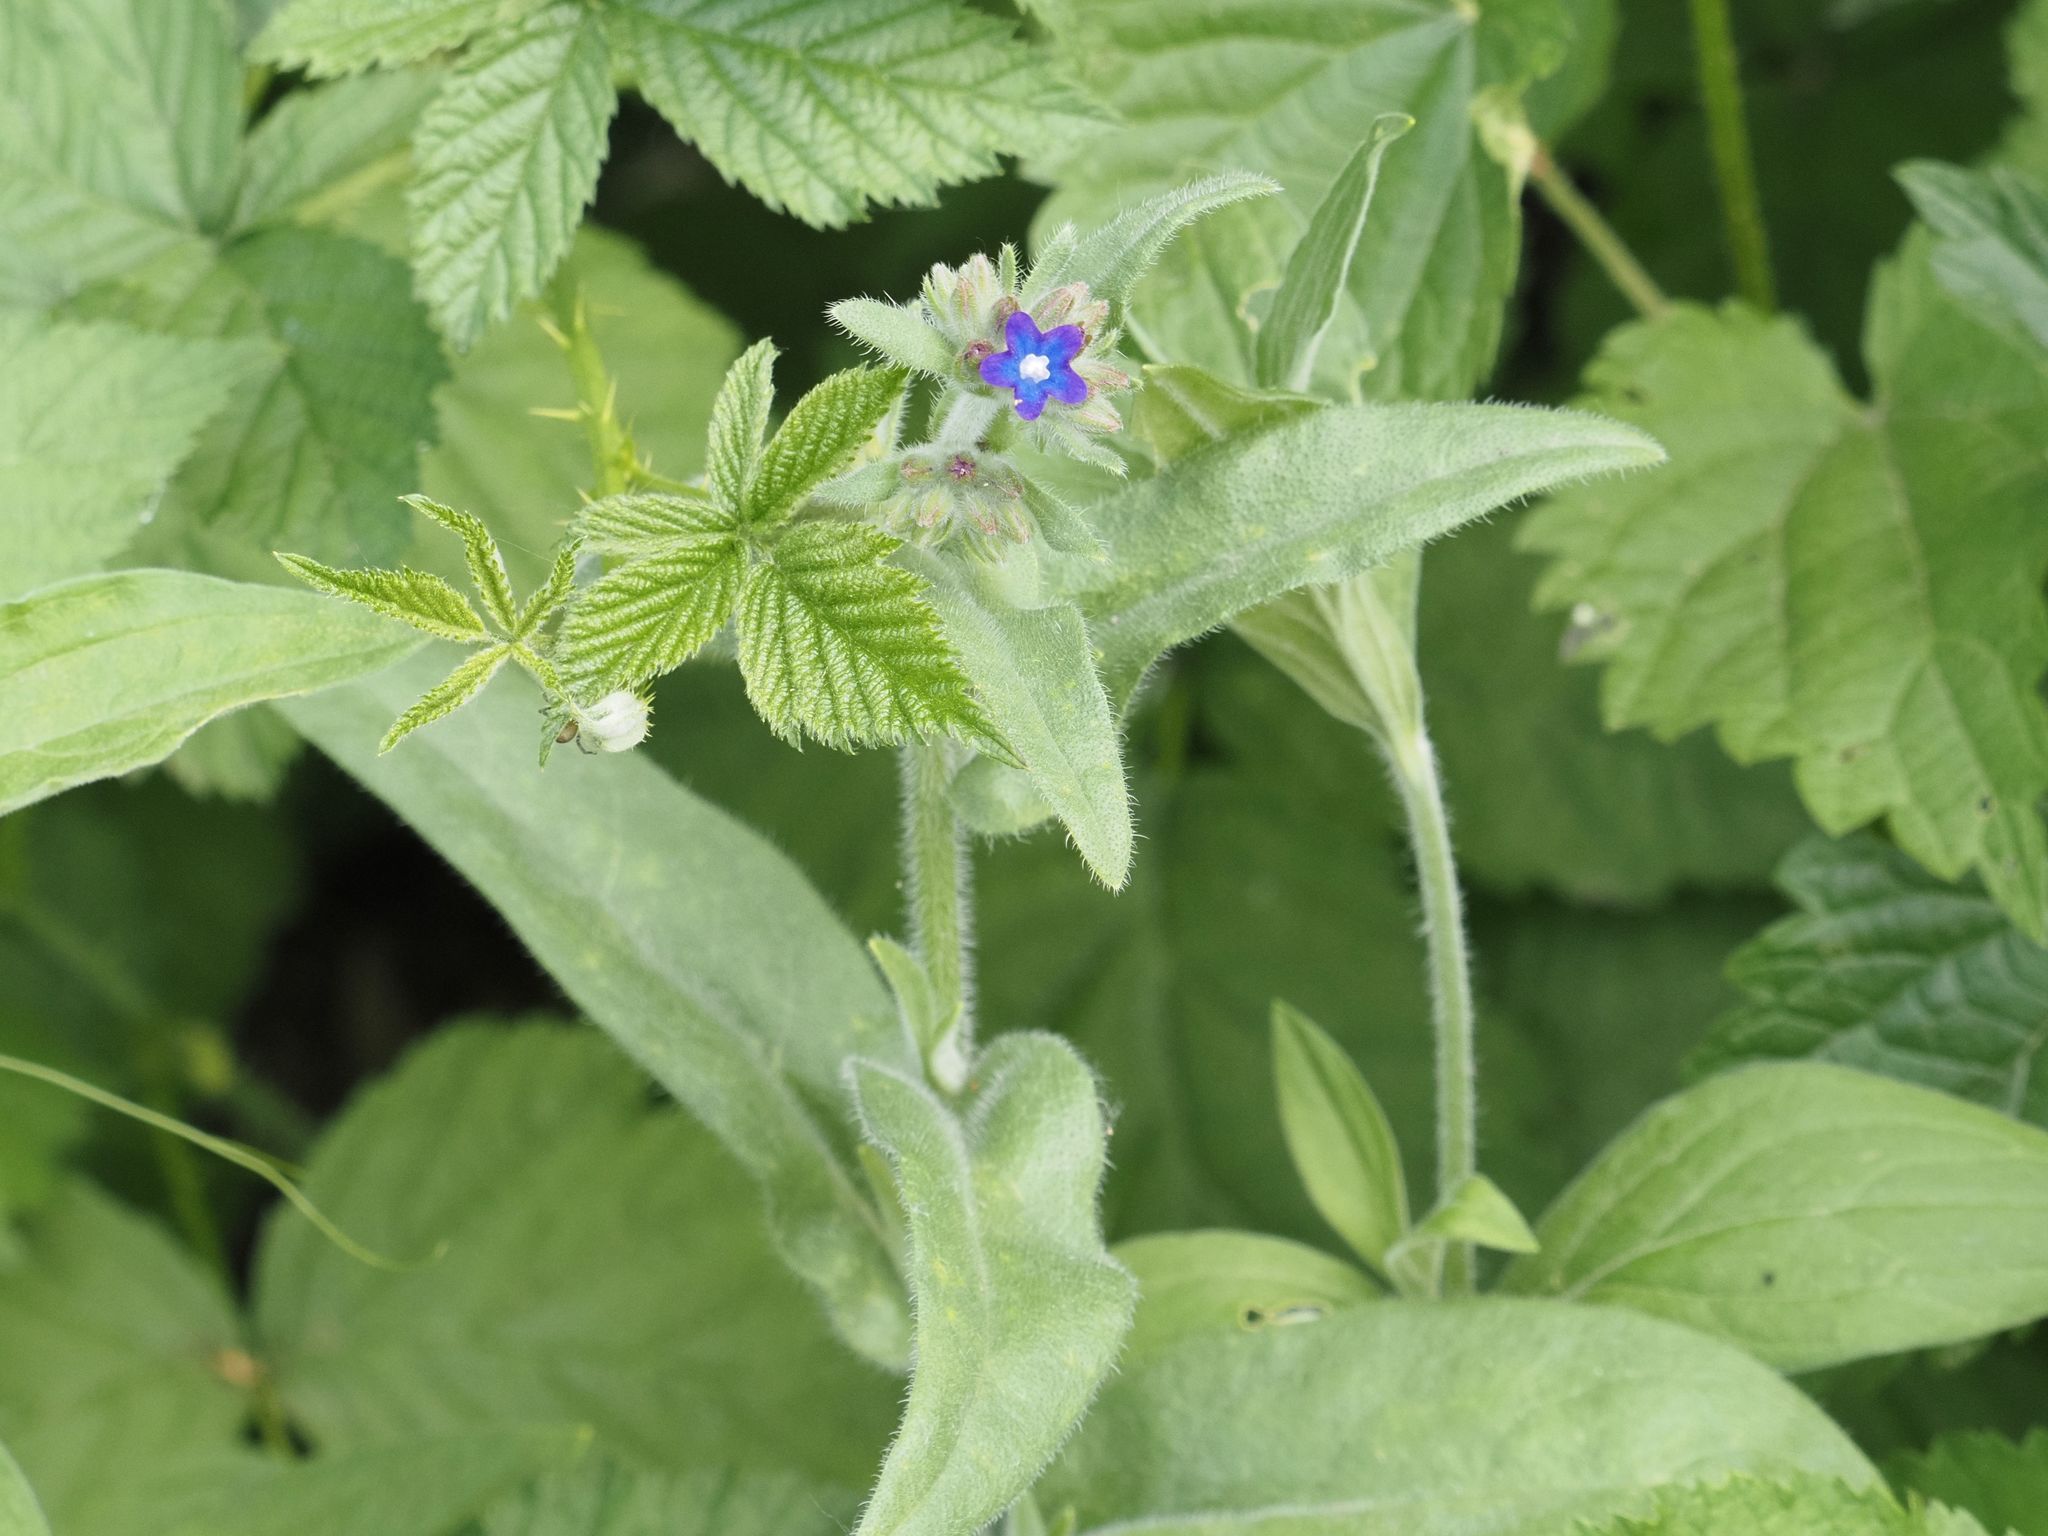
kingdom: Plantae
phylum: Tracheophyta
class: Magnoliopsida
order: Boraginales
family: Boraginaceae
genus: Anchusa
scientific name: Anchusa officinalis
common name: Alkanet
